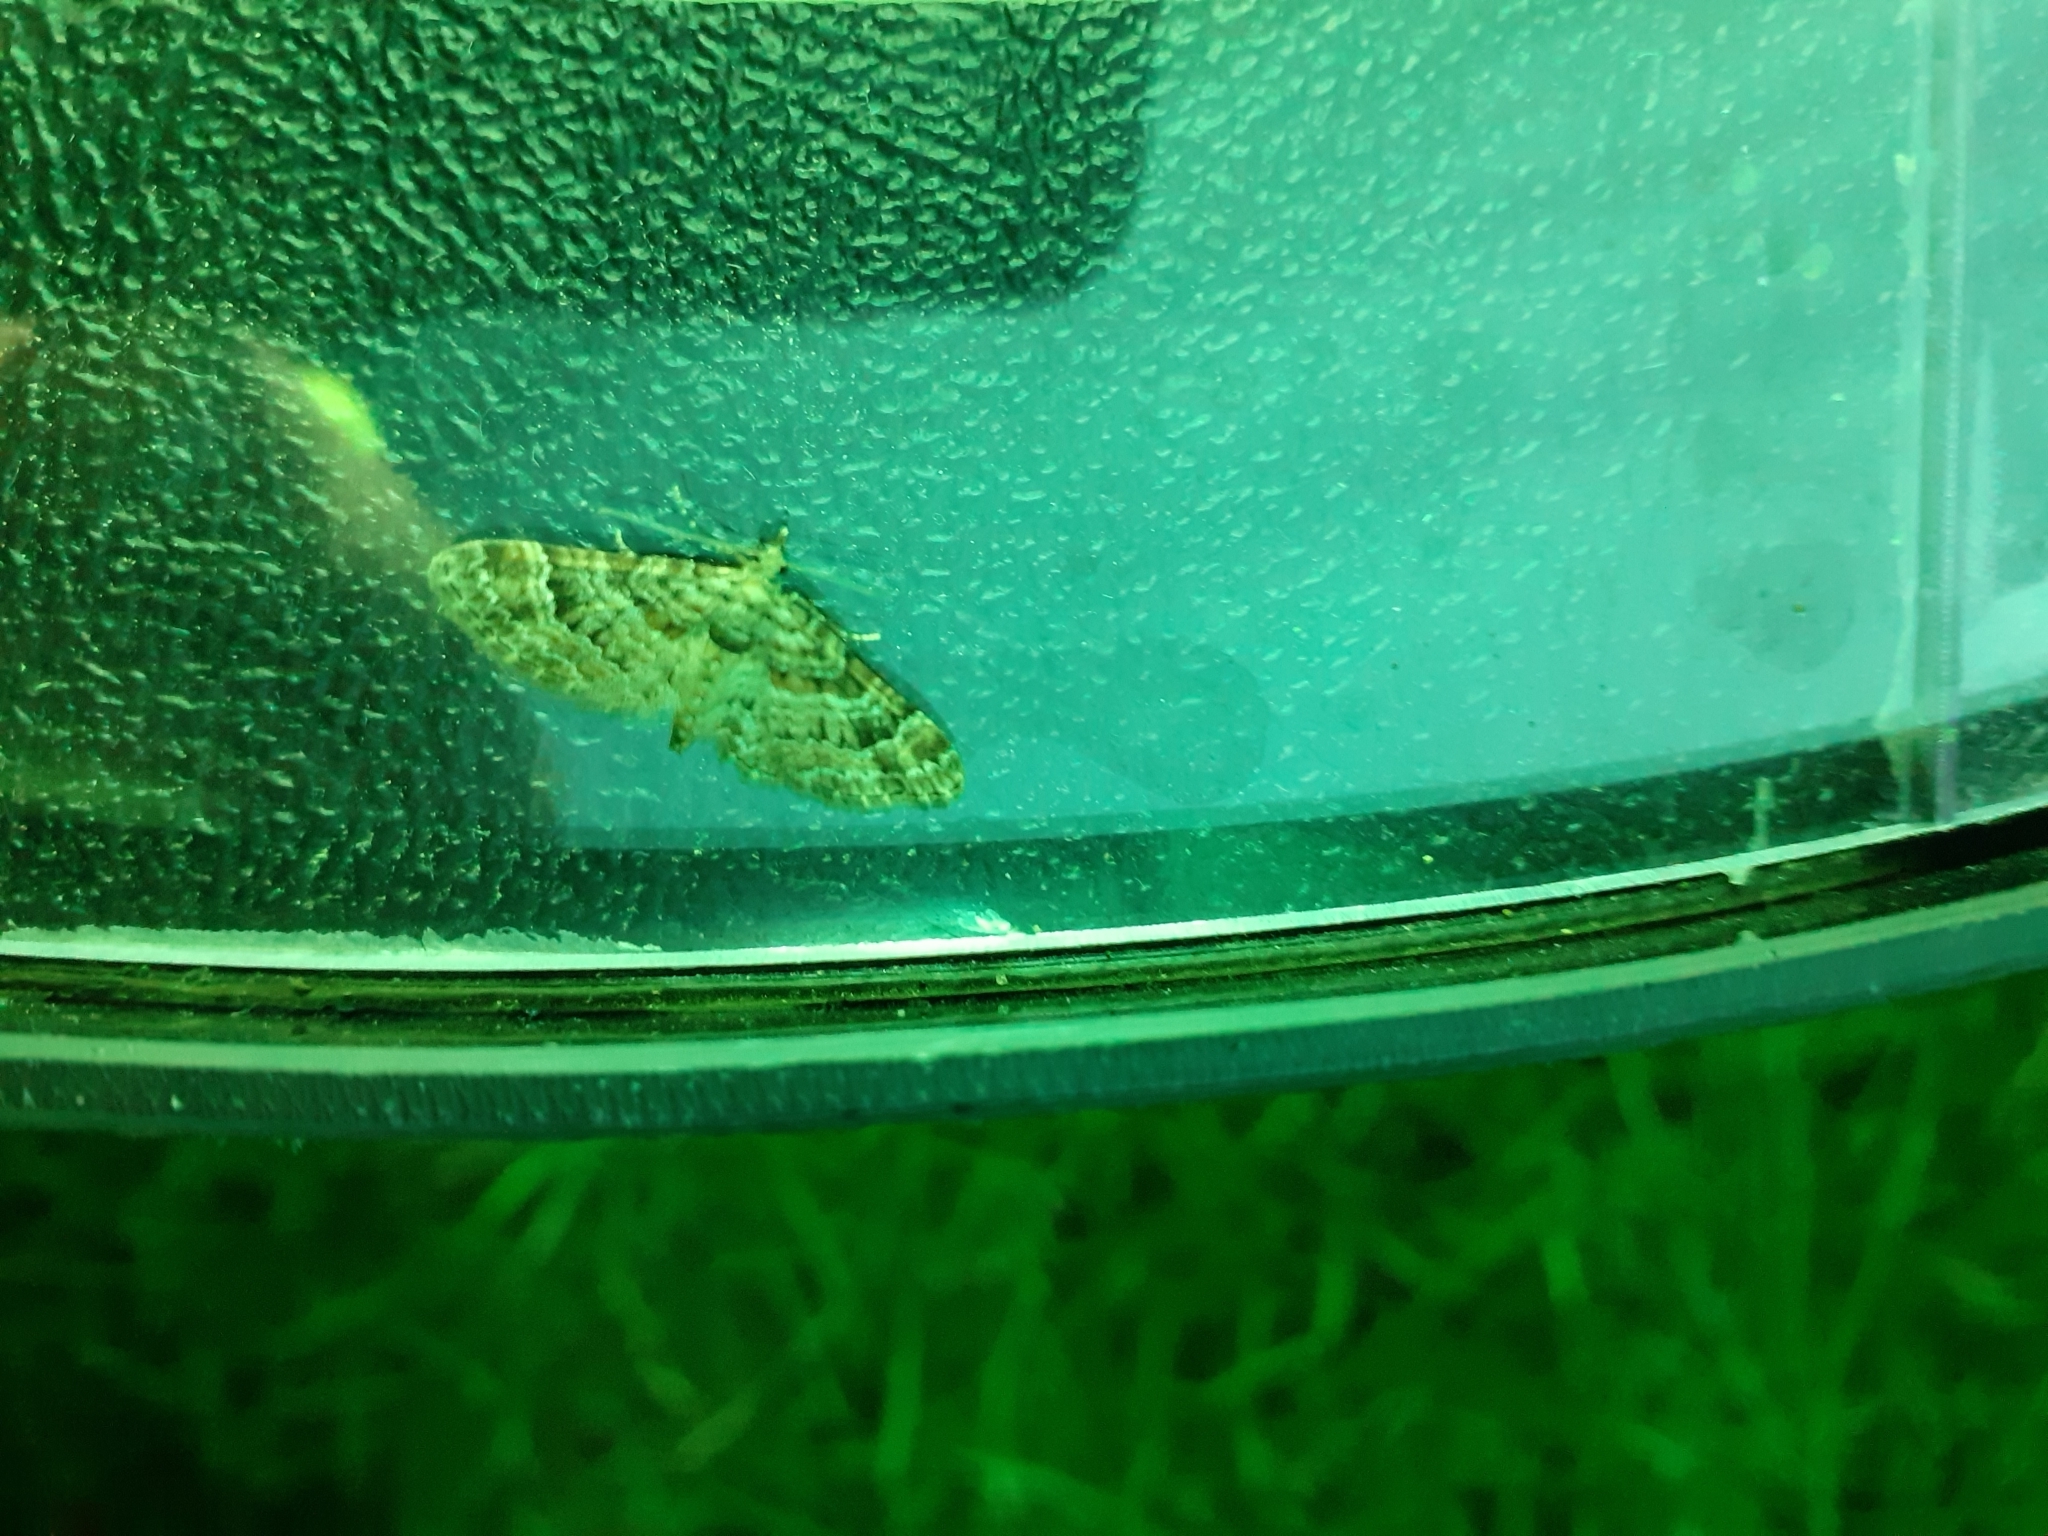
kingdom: Animalia
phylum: Arthropoda
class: Insecta
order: Lepidoptera
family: Geometridae
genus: Gymnoscelis
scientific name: Gymnoscelis rufifasciata
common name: Double-striped pug
